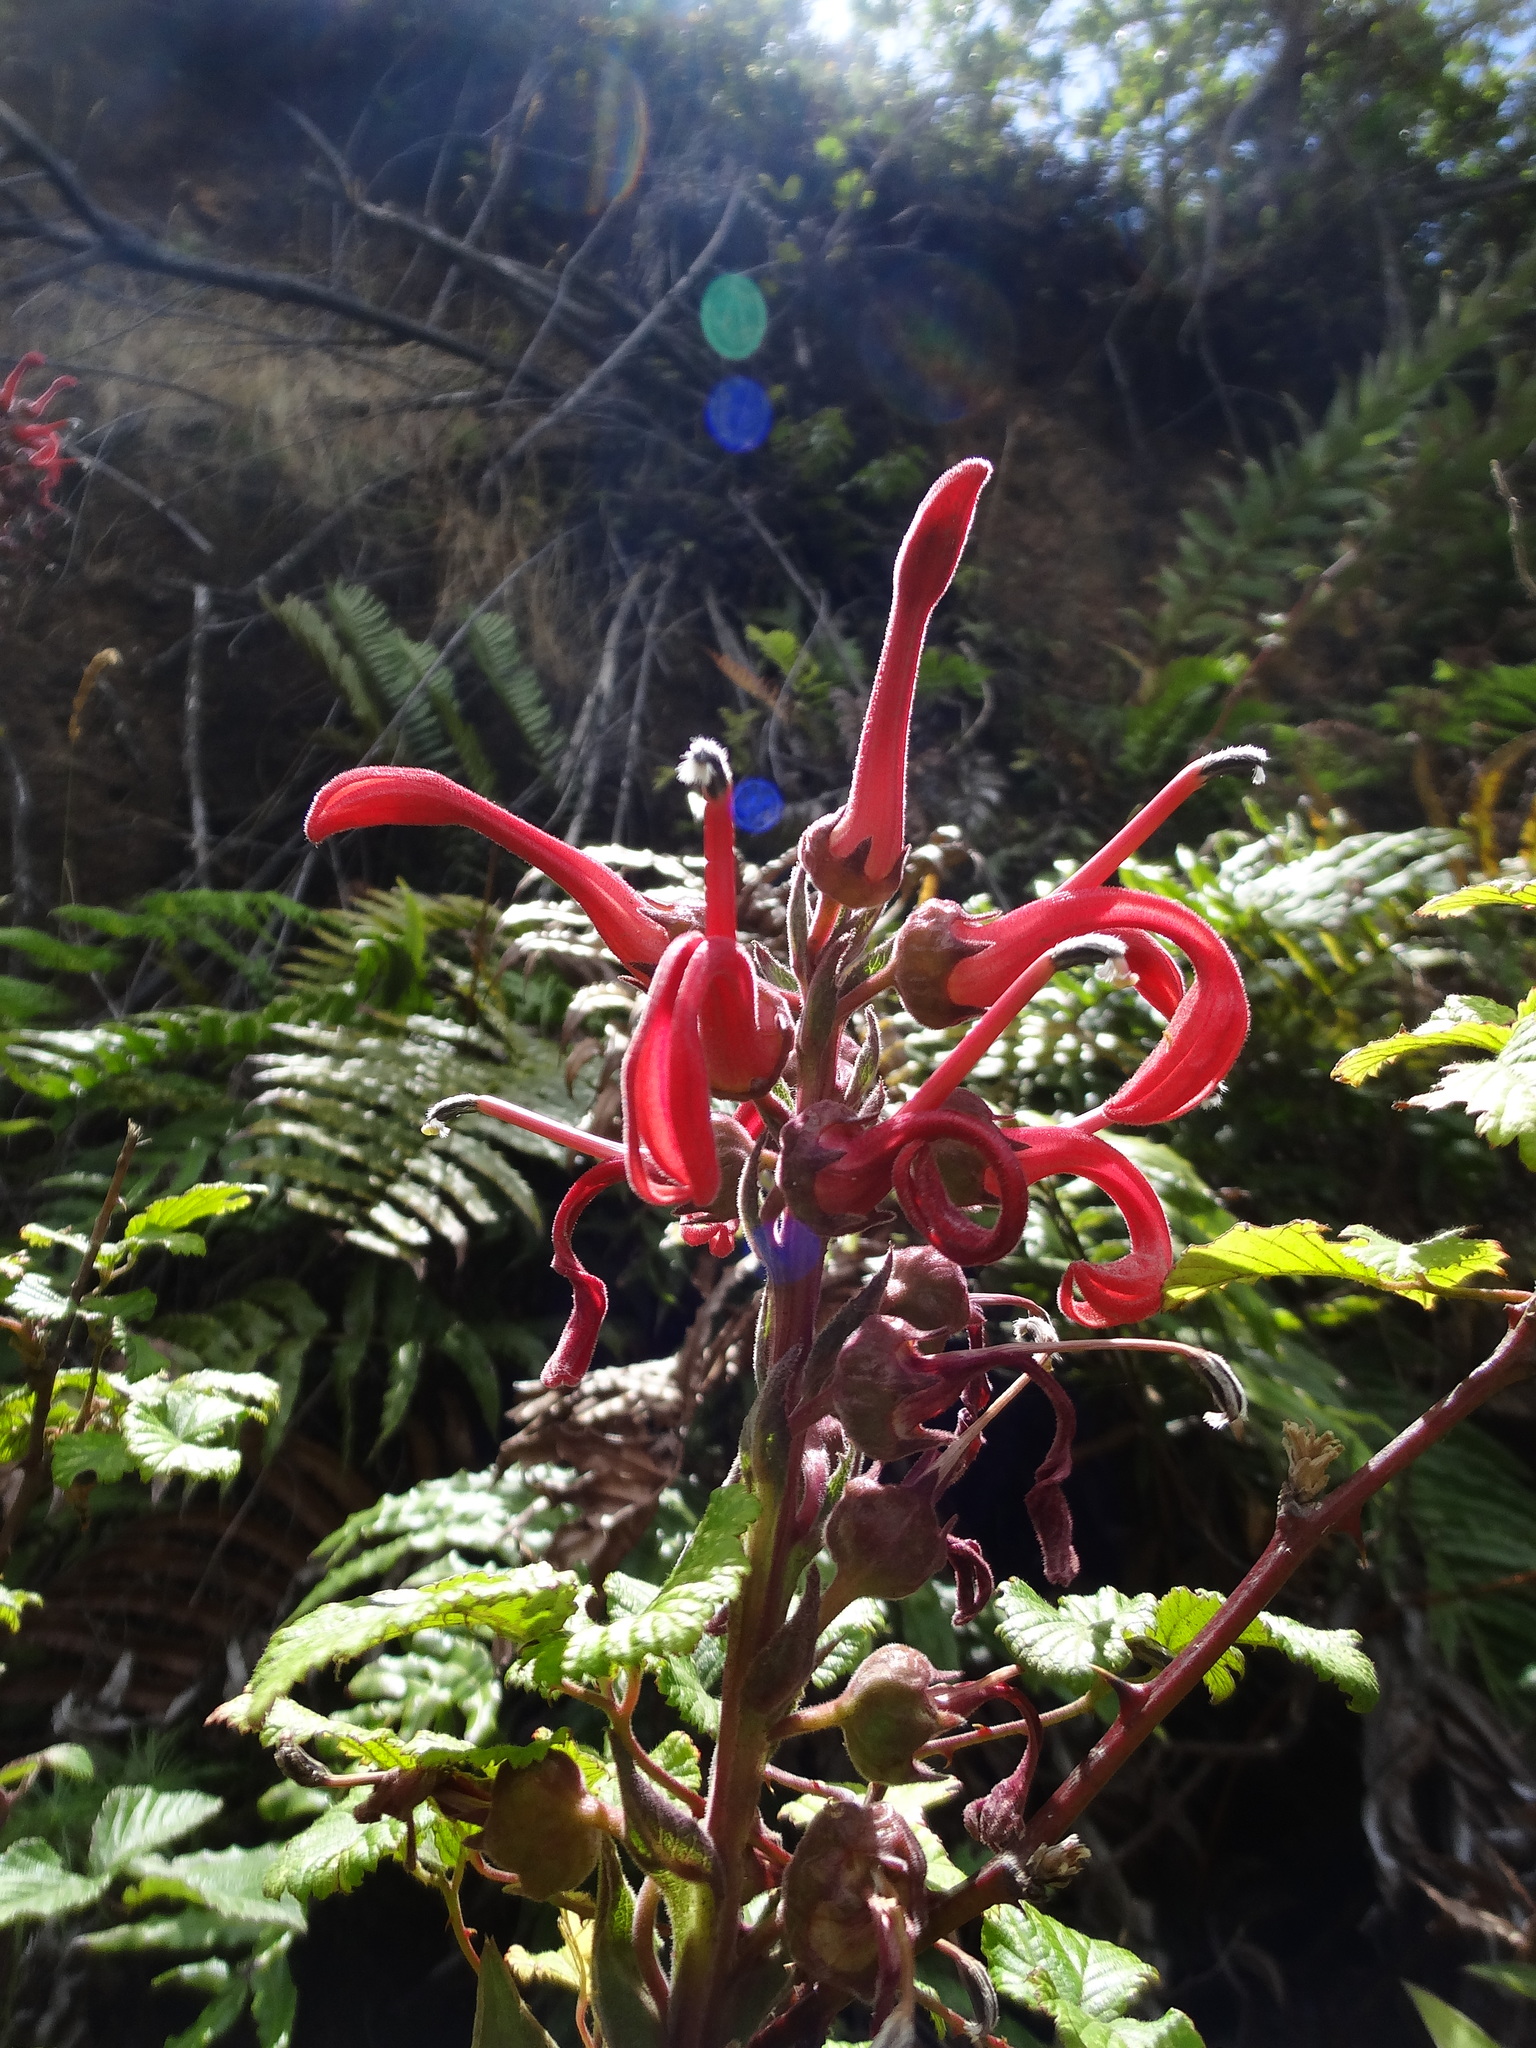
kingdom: Plantae
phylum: Tracheophyta
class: Magnoliopsida
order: Asterales
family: Campanulaceae
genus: Lobelia
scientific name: Lobelia tupa
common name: Devil's-tobacco
